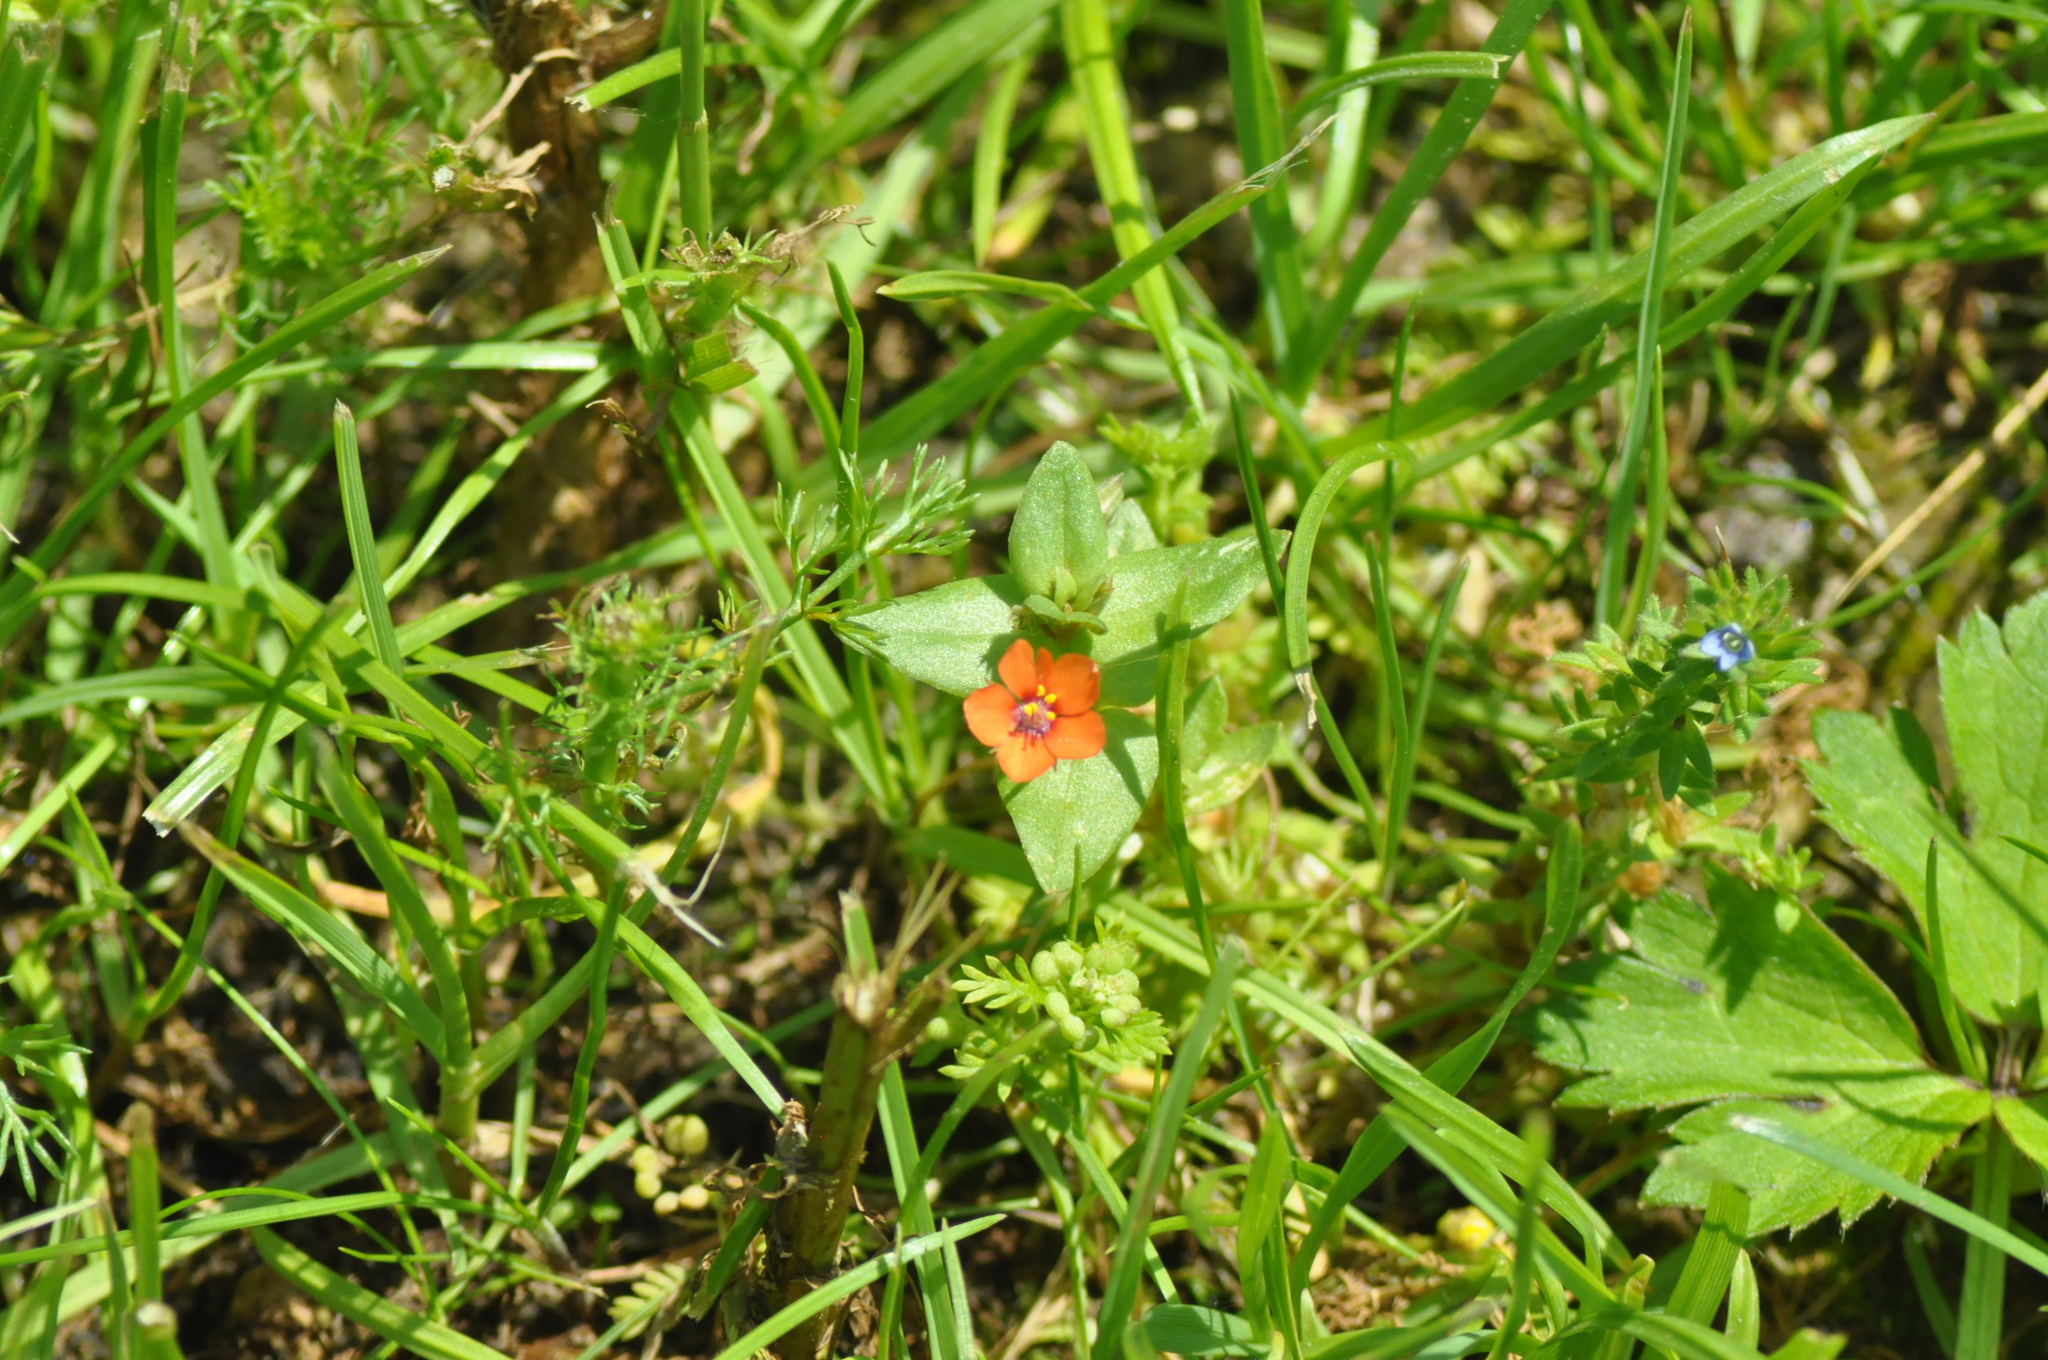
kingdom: Plantae
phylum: Tracheophyta
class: Magnoliopsida
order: Ericales
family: Primulaceae
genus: Lysimachia
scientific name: Lysimachia arvensis
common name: Scarlet pimpernel
